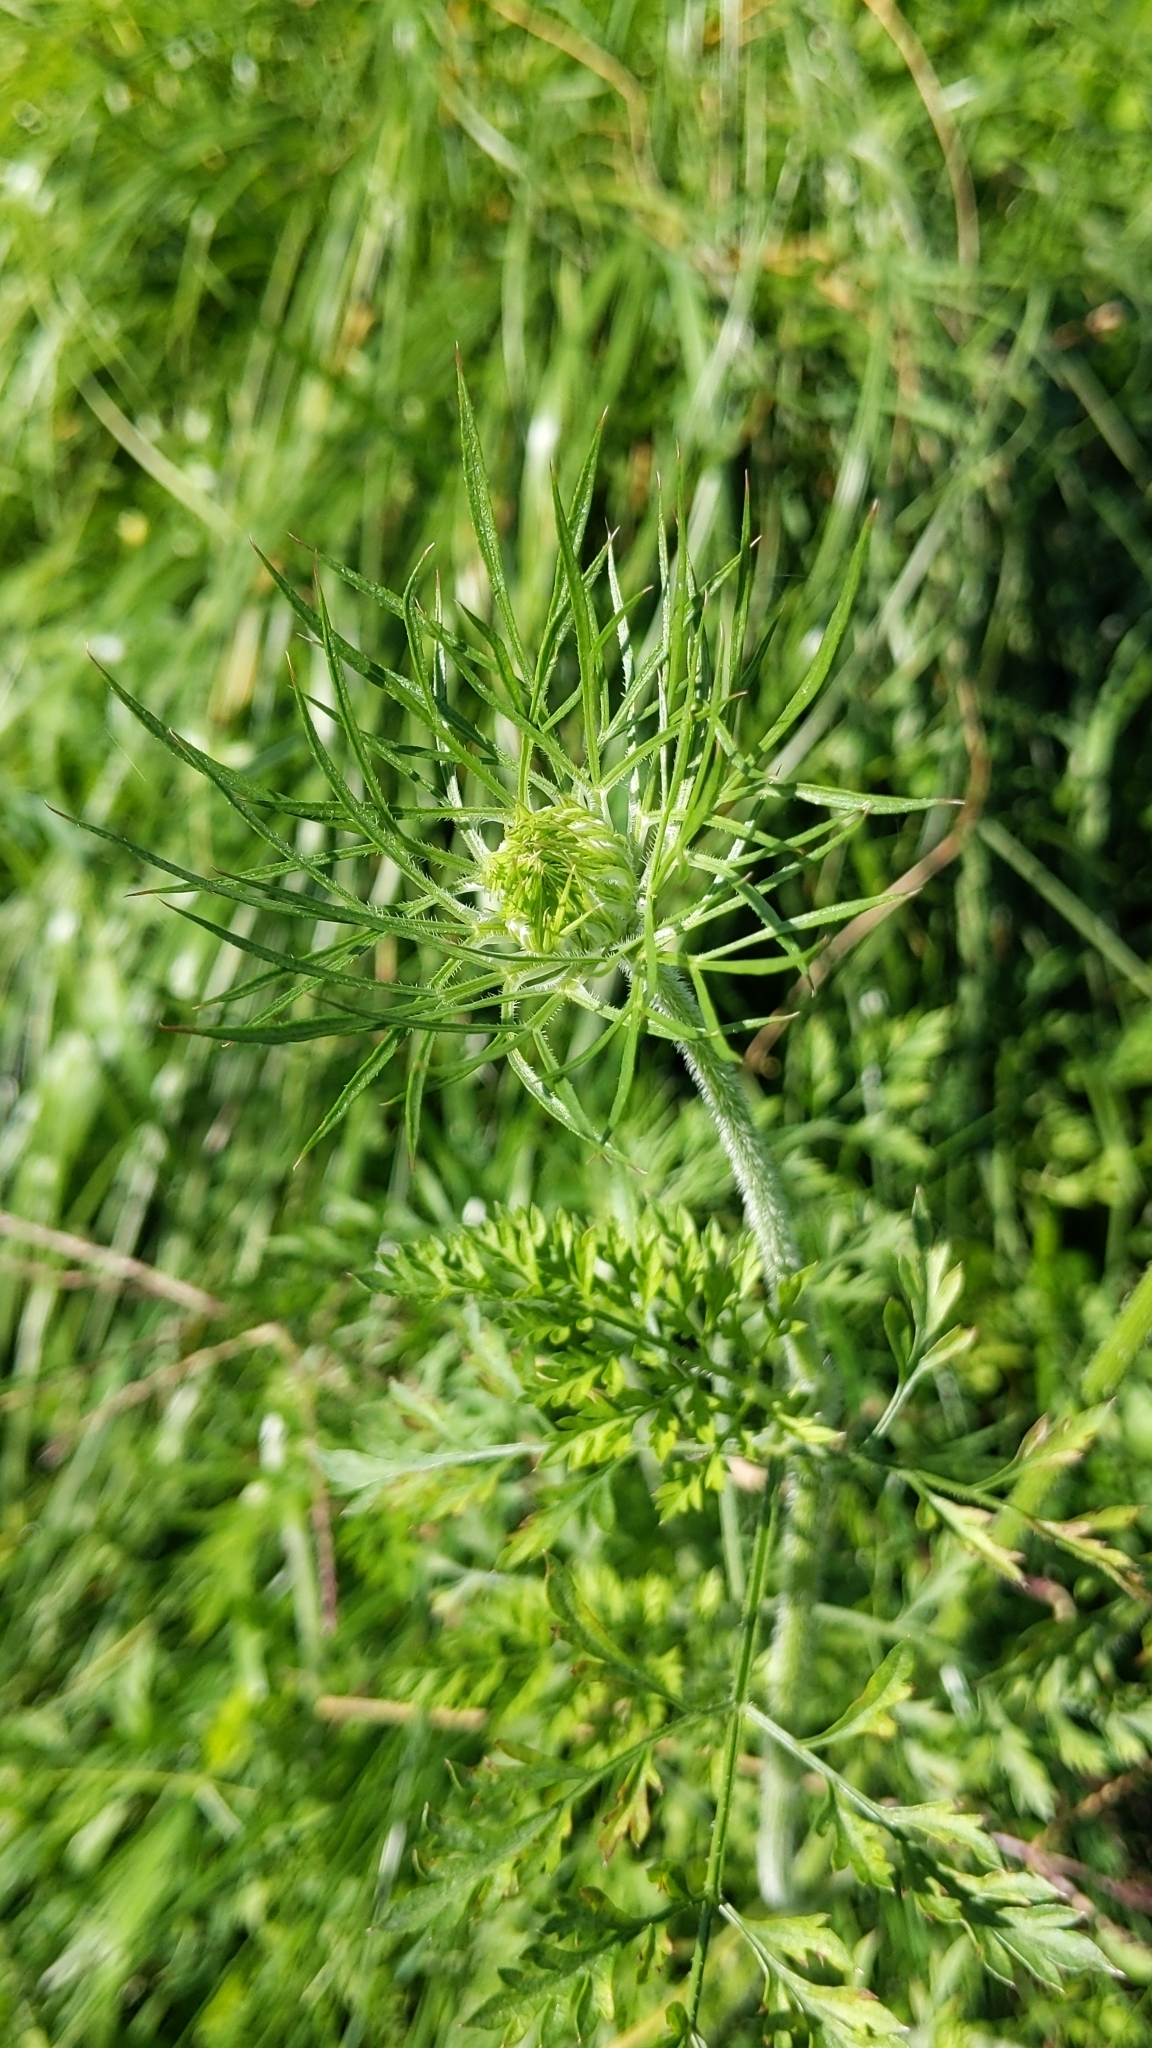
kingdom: Plantae
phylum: Tracheophyta
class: Magnoliopsida
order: Apiales
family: Apiaceae
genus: Daucus
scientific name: Daucus carota
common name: Wild carrot
